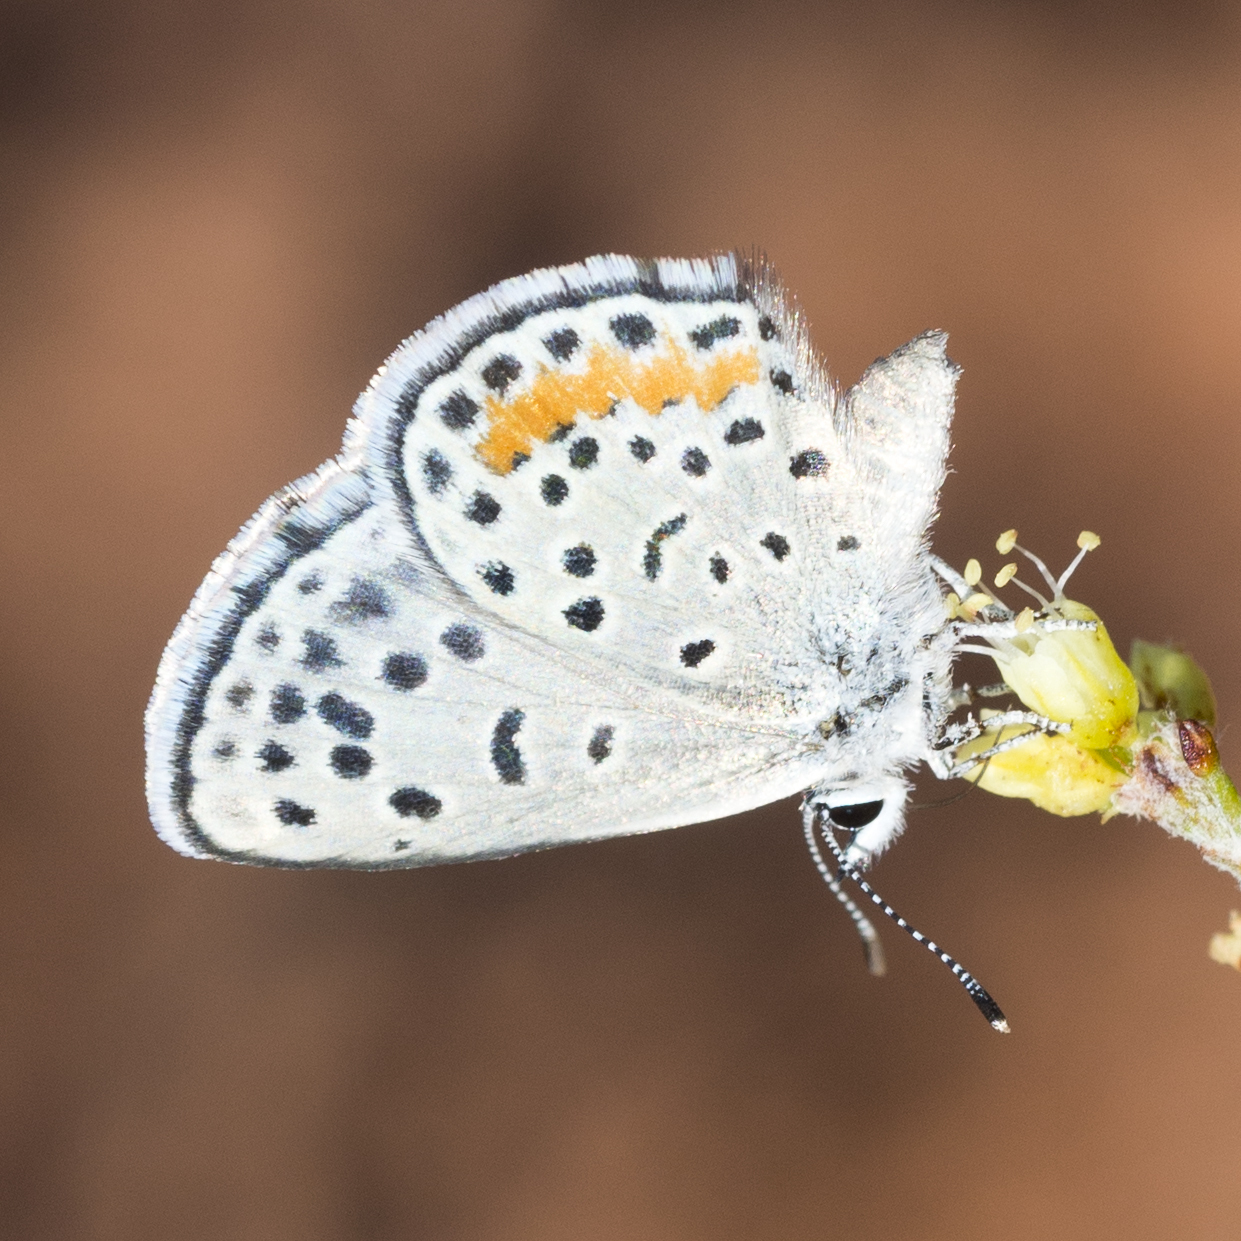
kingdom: Animalia
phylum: Arthropoda
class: Insecta
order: Lepidoptera
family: Lycaenidae
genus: Philotes
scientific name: Philotes pallescens
